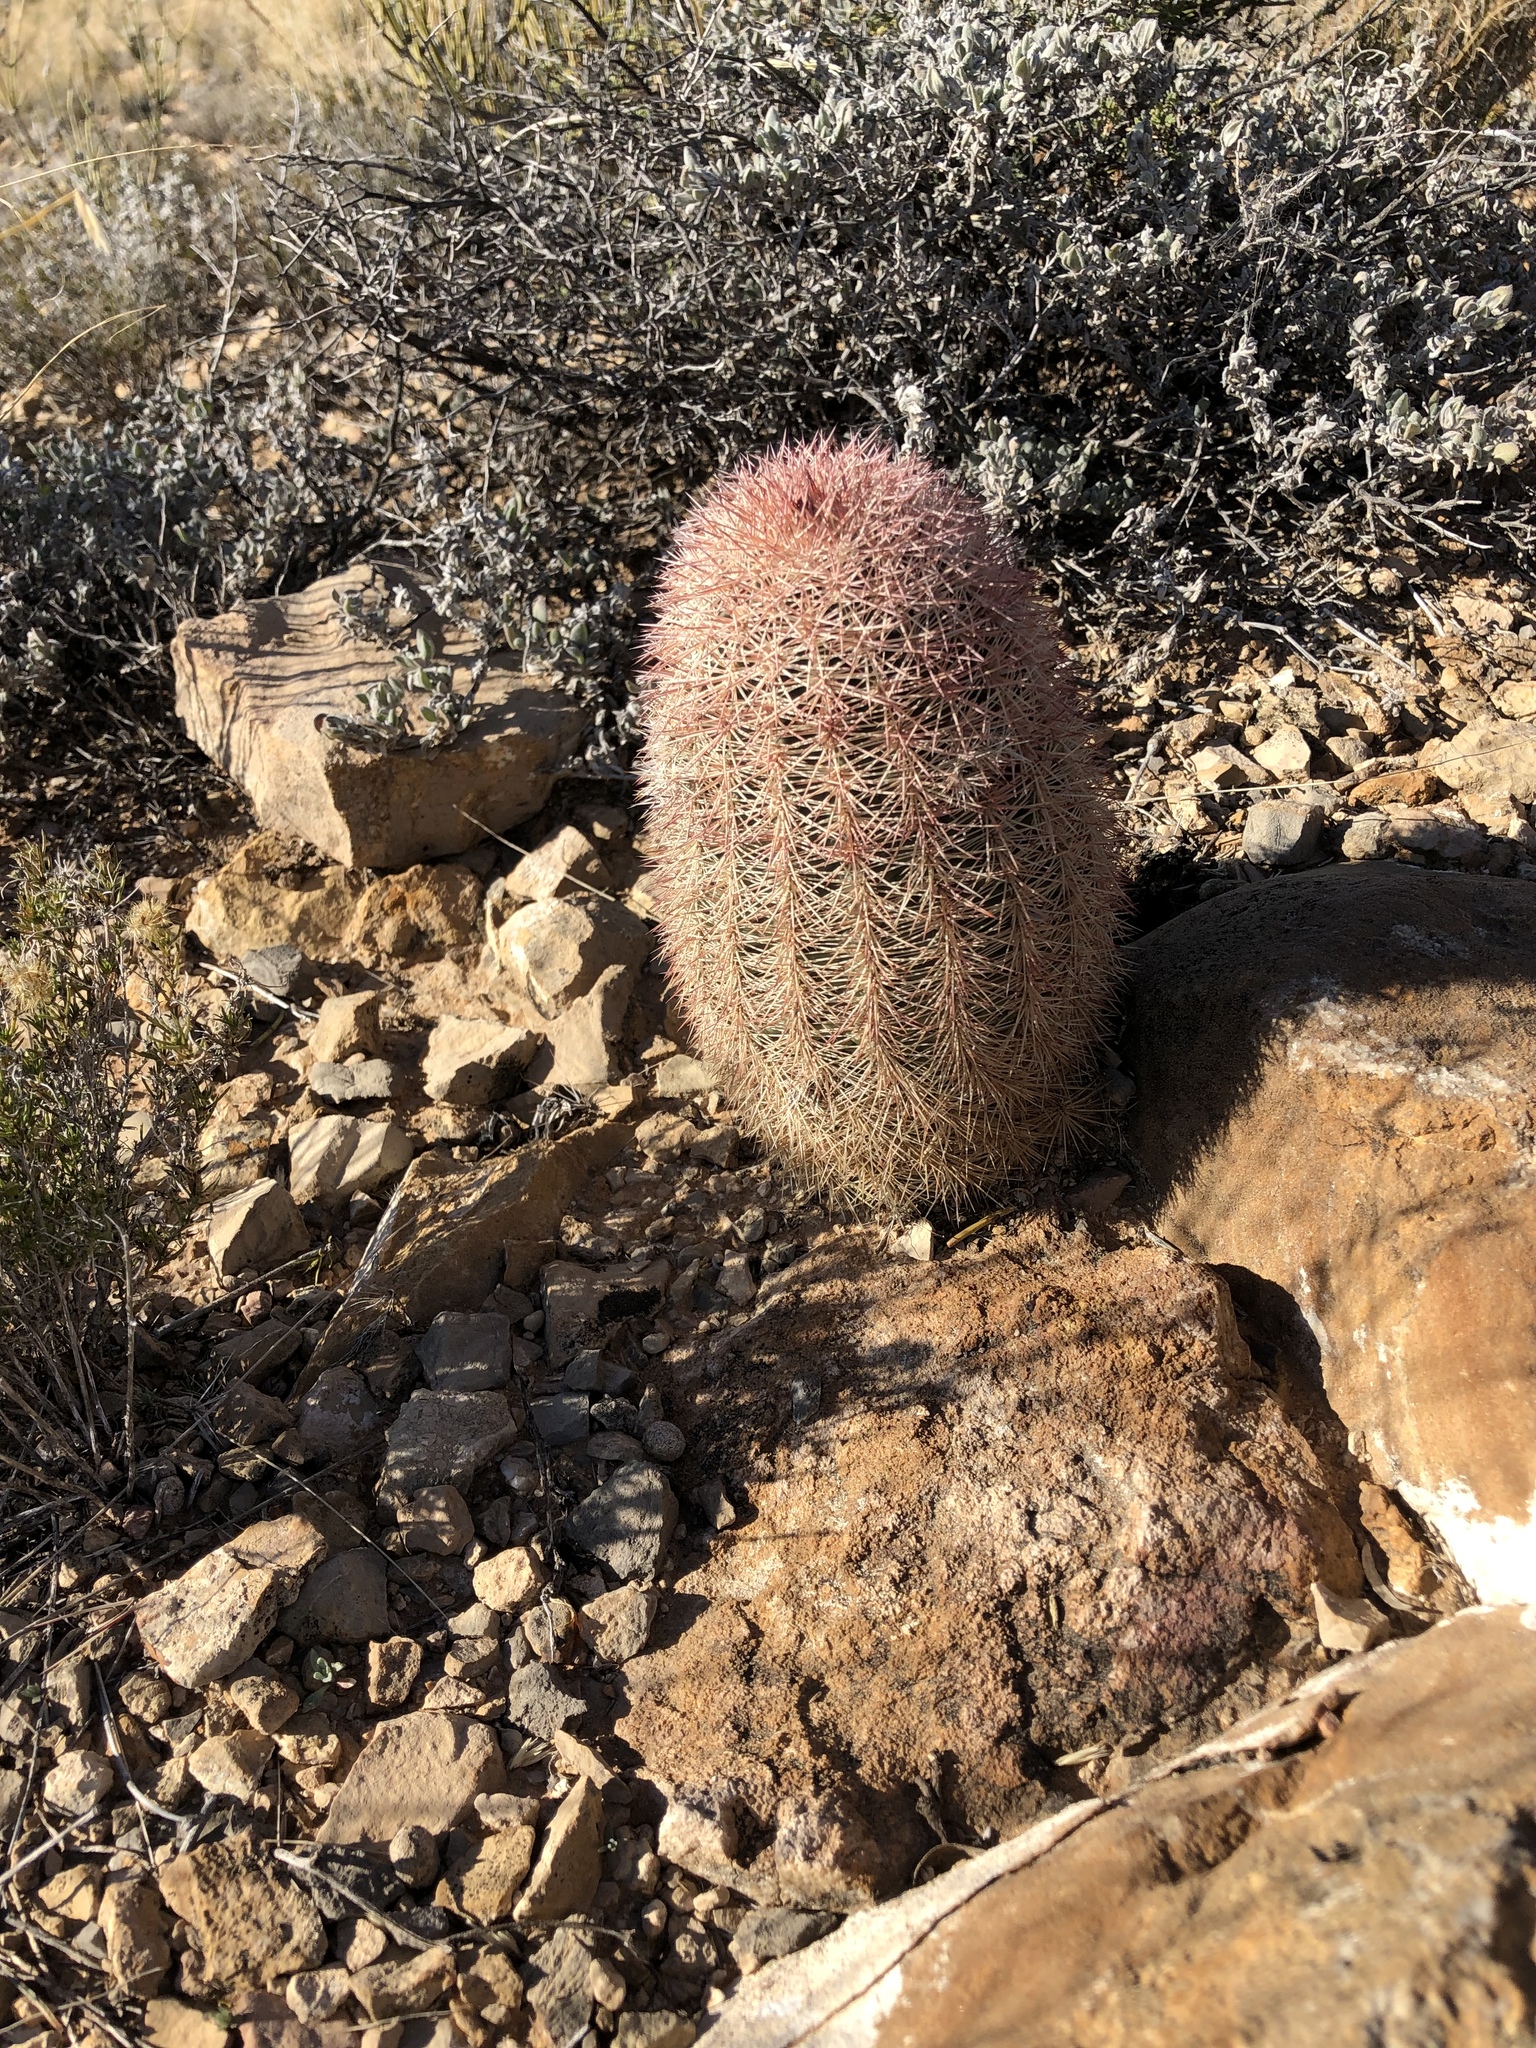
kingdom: Plantae
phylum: Tracheophyta
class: Magnoliopsida
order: Caryophyllales
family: Cactaceae
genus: Echinocereus
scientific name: Echinocereus dasyacanthus
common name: Spiny hedgehog cactus
